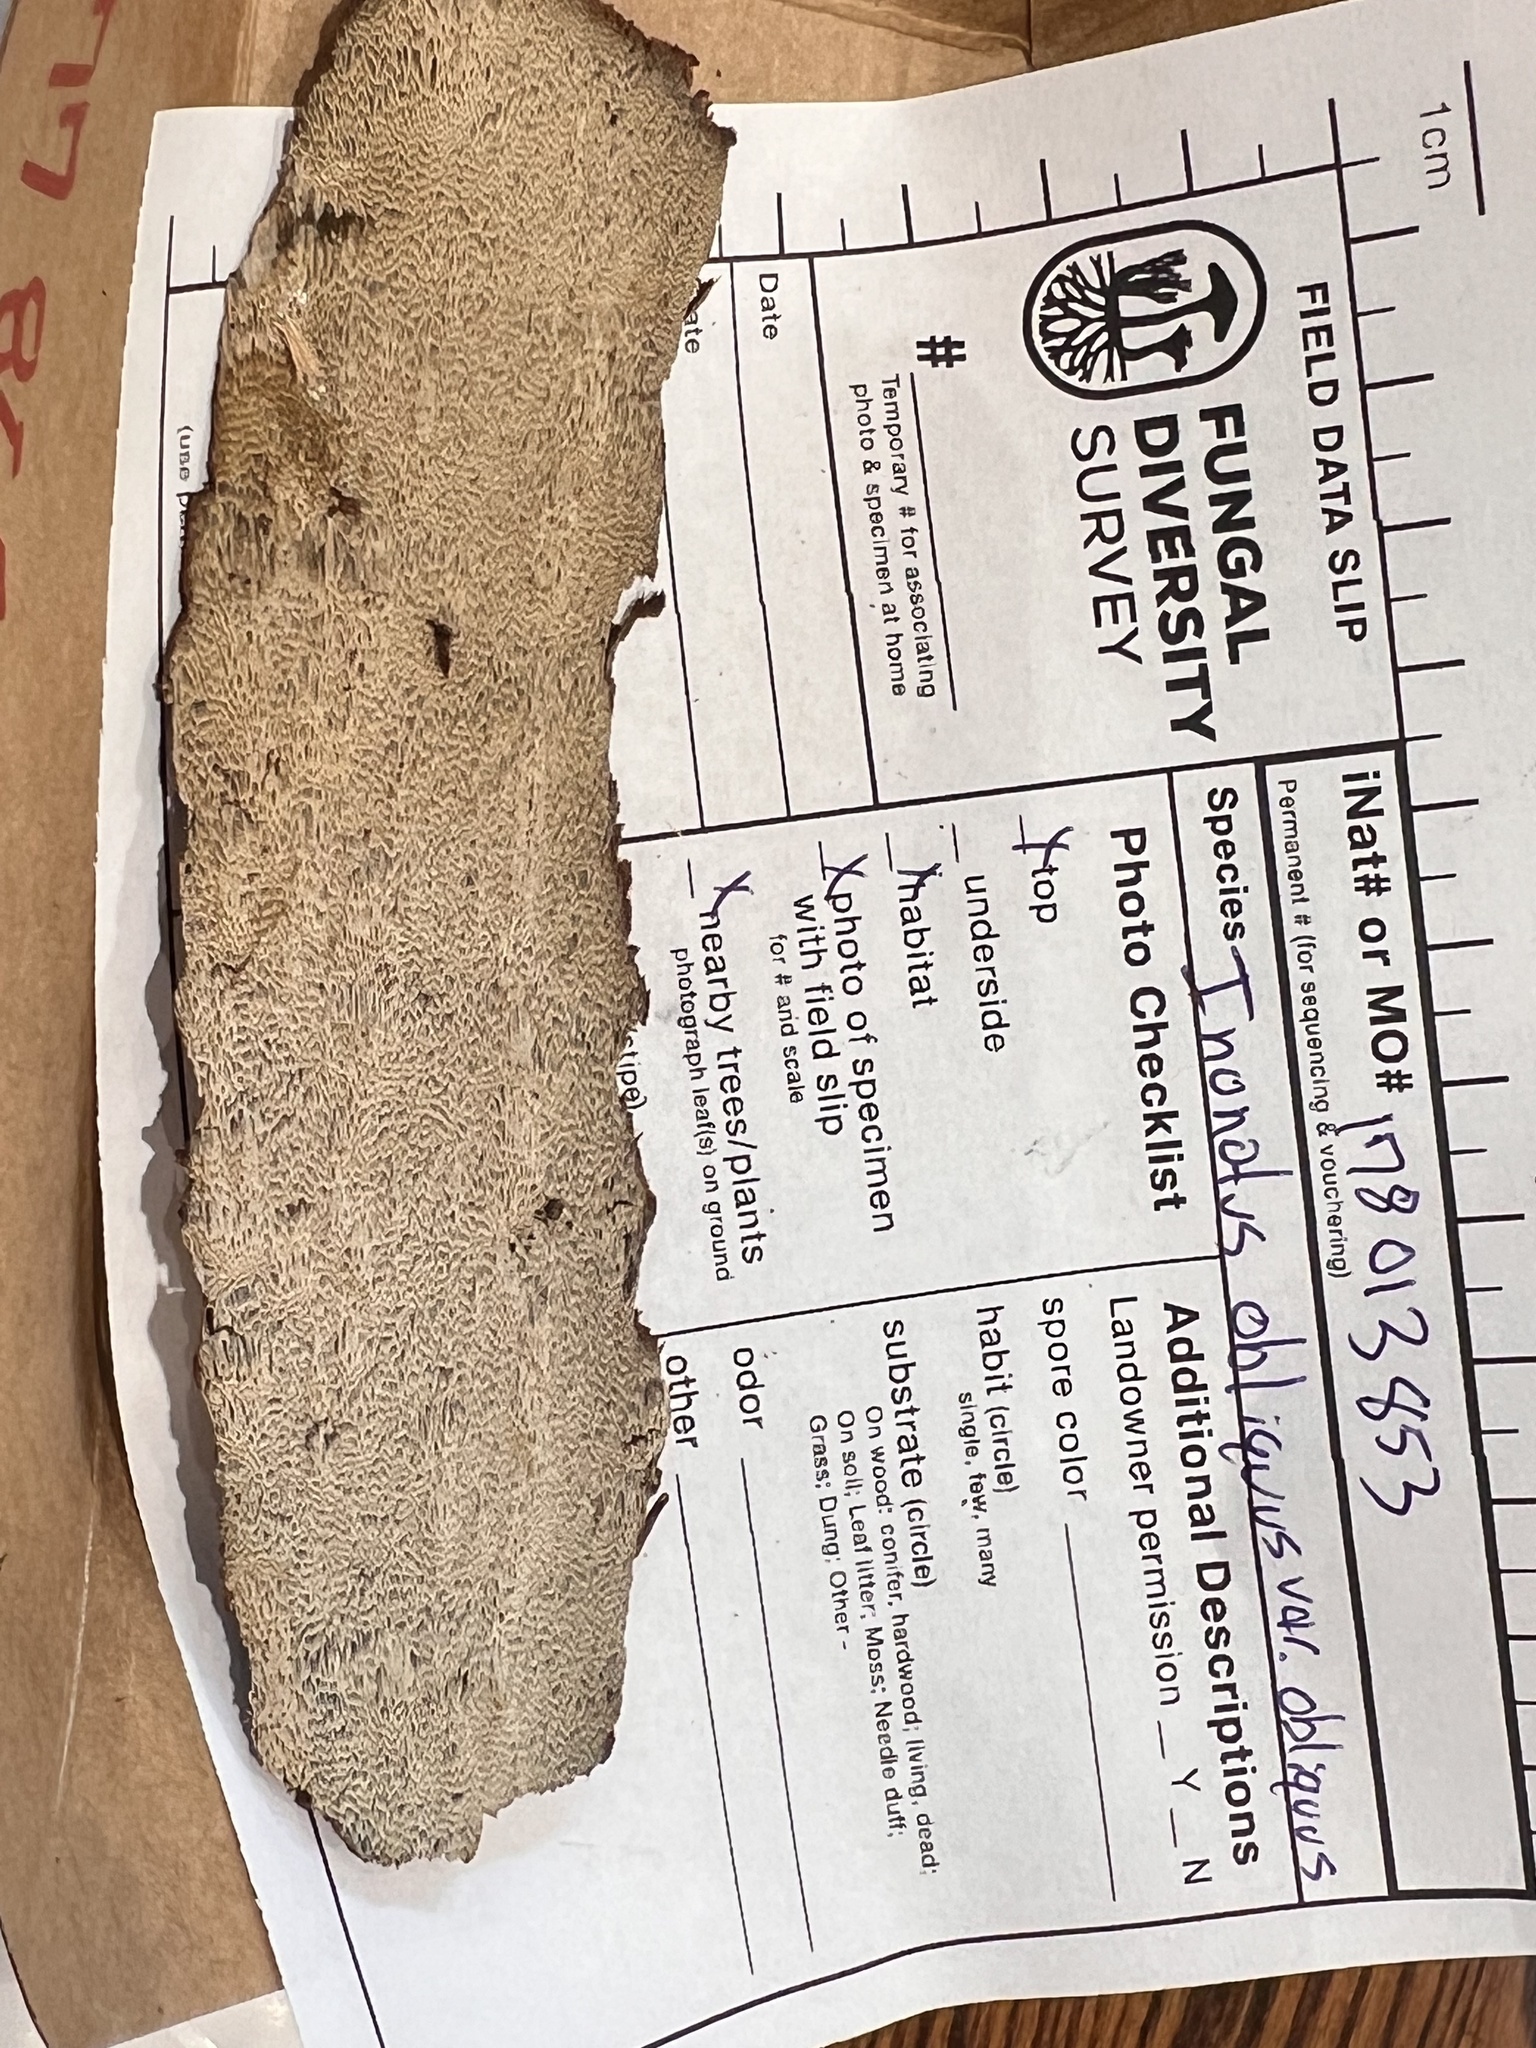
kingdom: Fungi
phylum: Basidiomycota
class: Agaricomycetes
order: Hymenochaetales
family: Hymenochaetaceae
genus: Inonotus
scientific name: Inonotus obliquus
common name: Chaga
